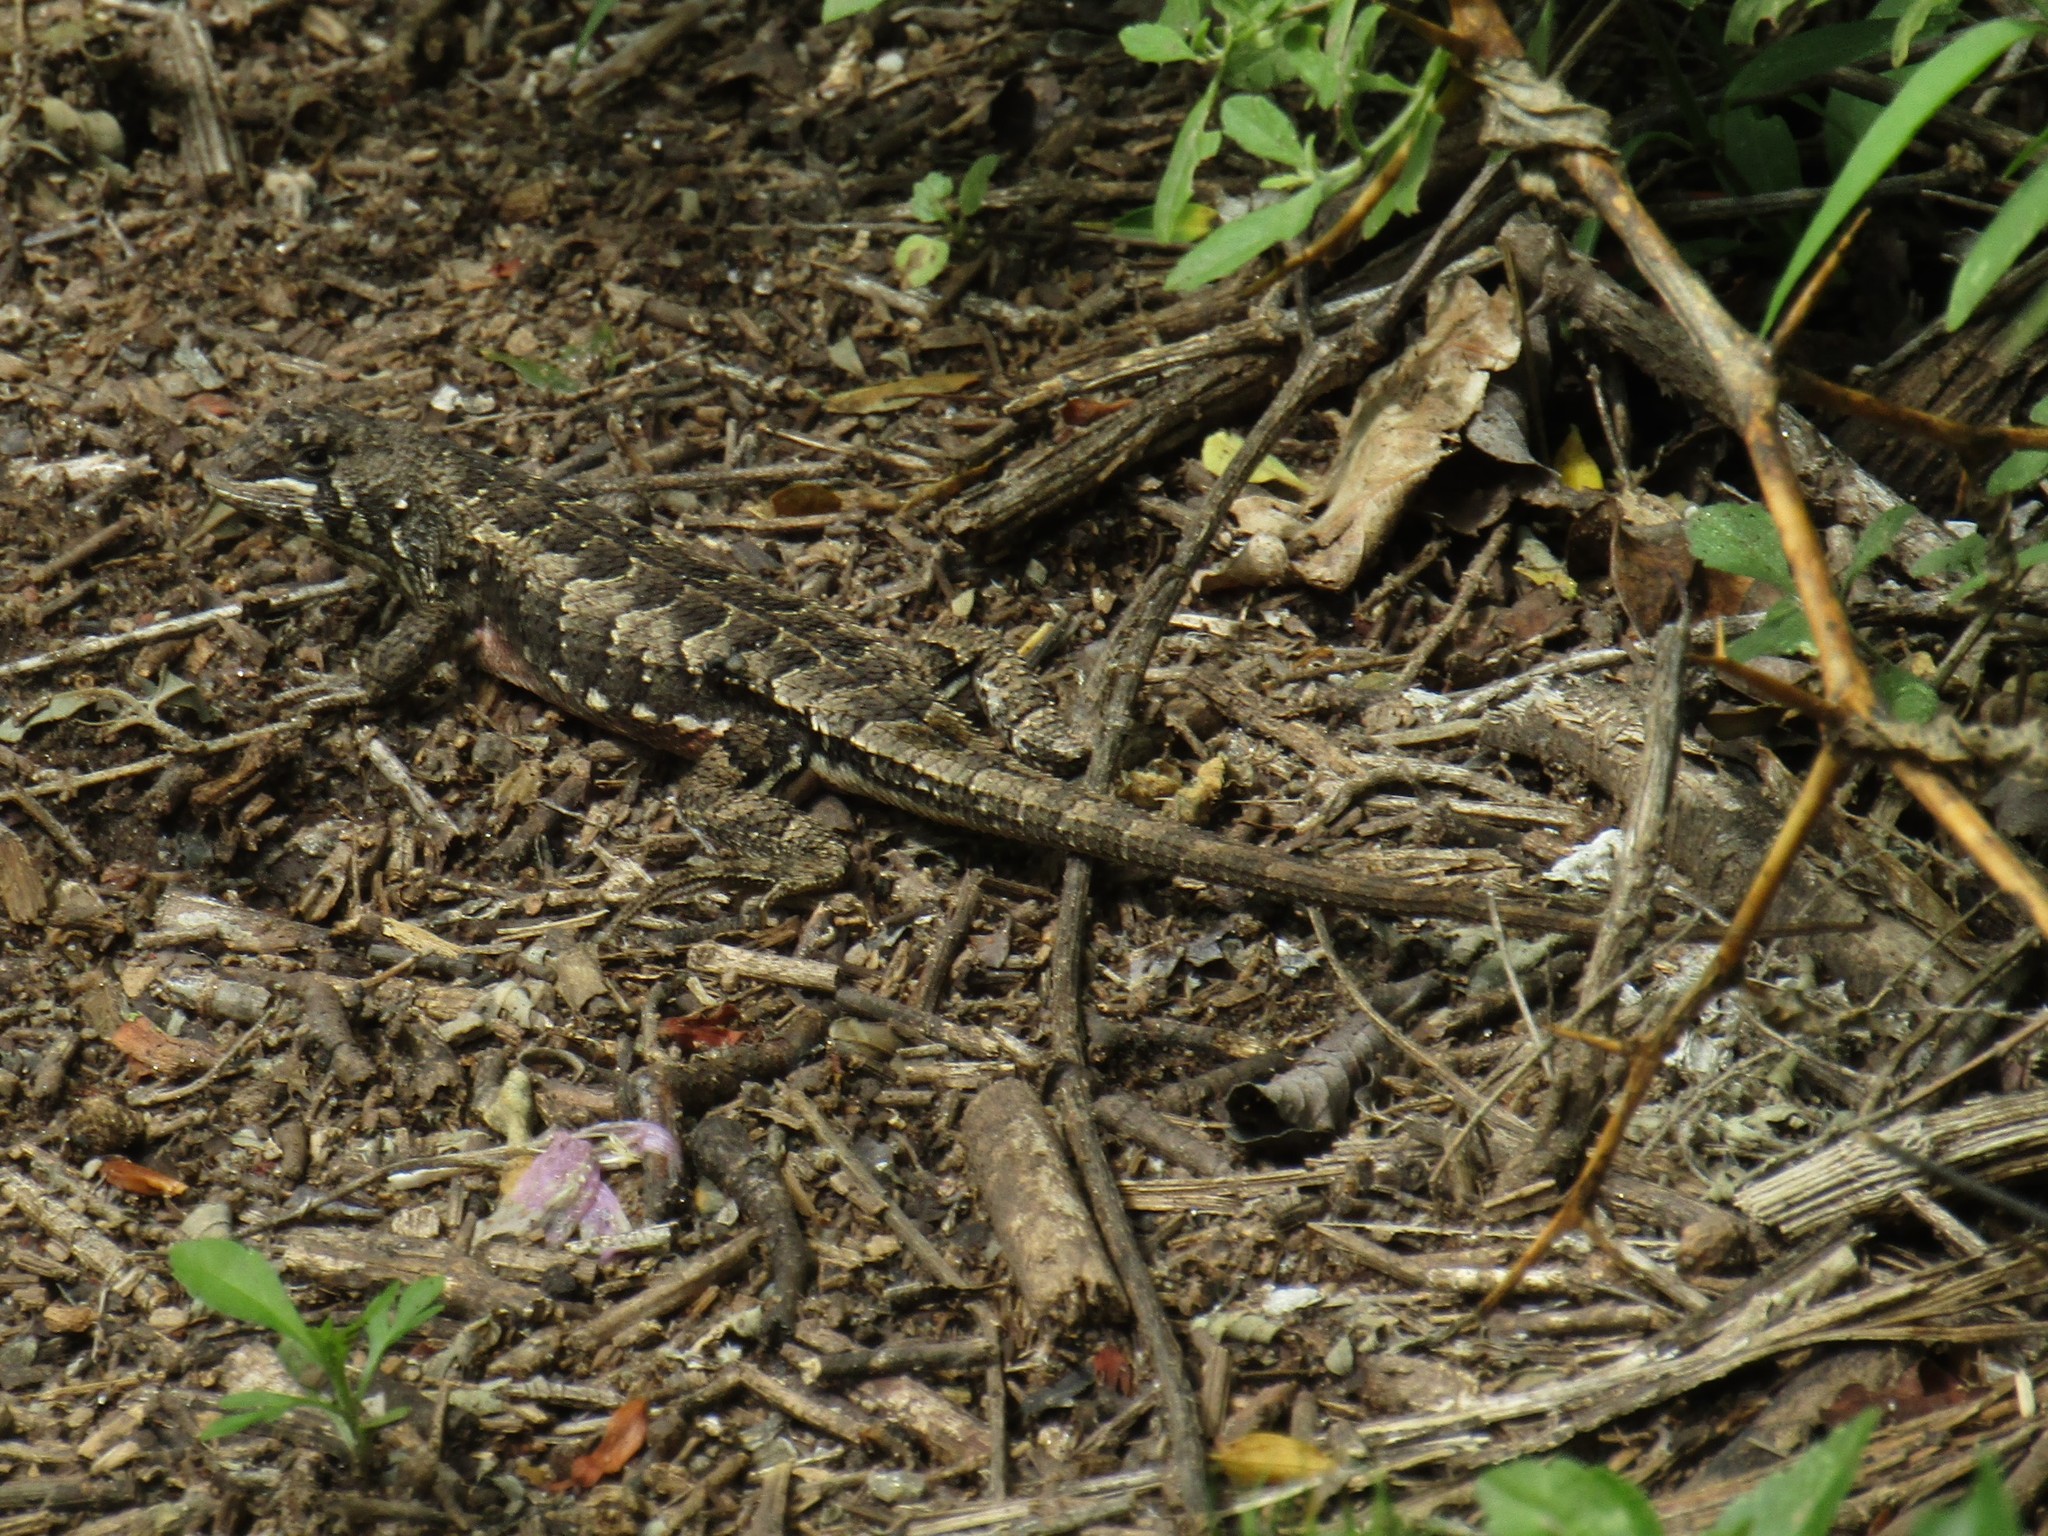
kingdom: Animalia
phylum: Chordata
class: Squamata
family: Tropiduridae
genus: Stenocercus
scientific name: Stenocercus doellojuradoi
